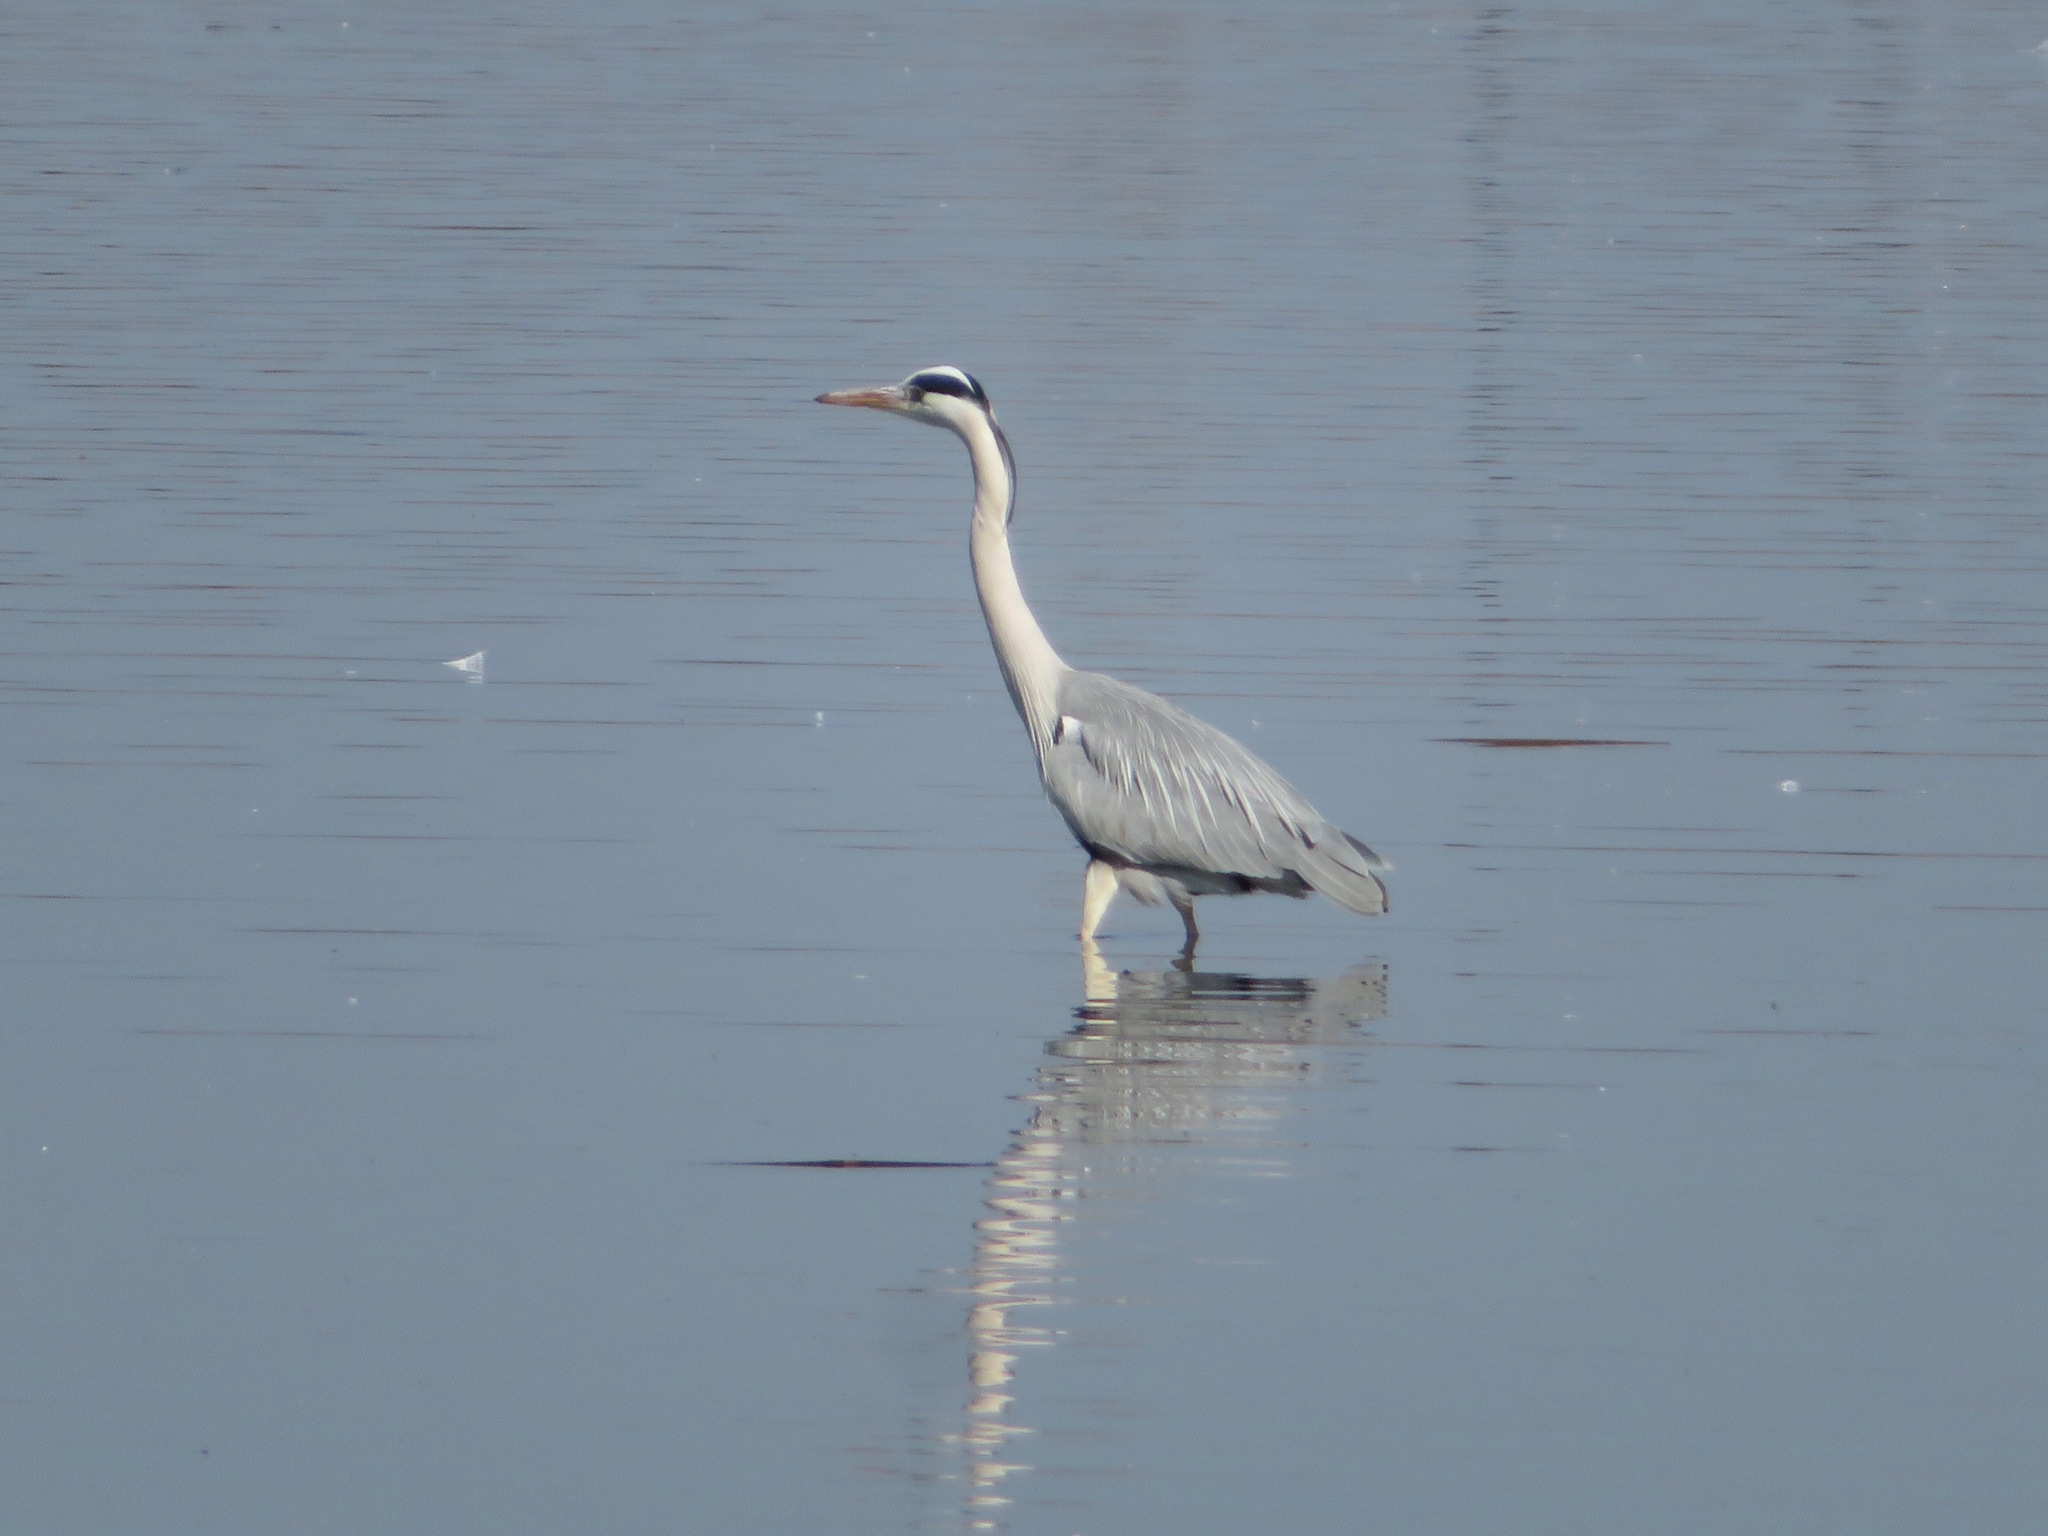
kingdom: Animalia
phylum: Chordata
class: Aves
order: Pelecaniformes
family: Ardeidae
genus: Ardea
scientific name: Ardea cinerea
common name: Grey heron
